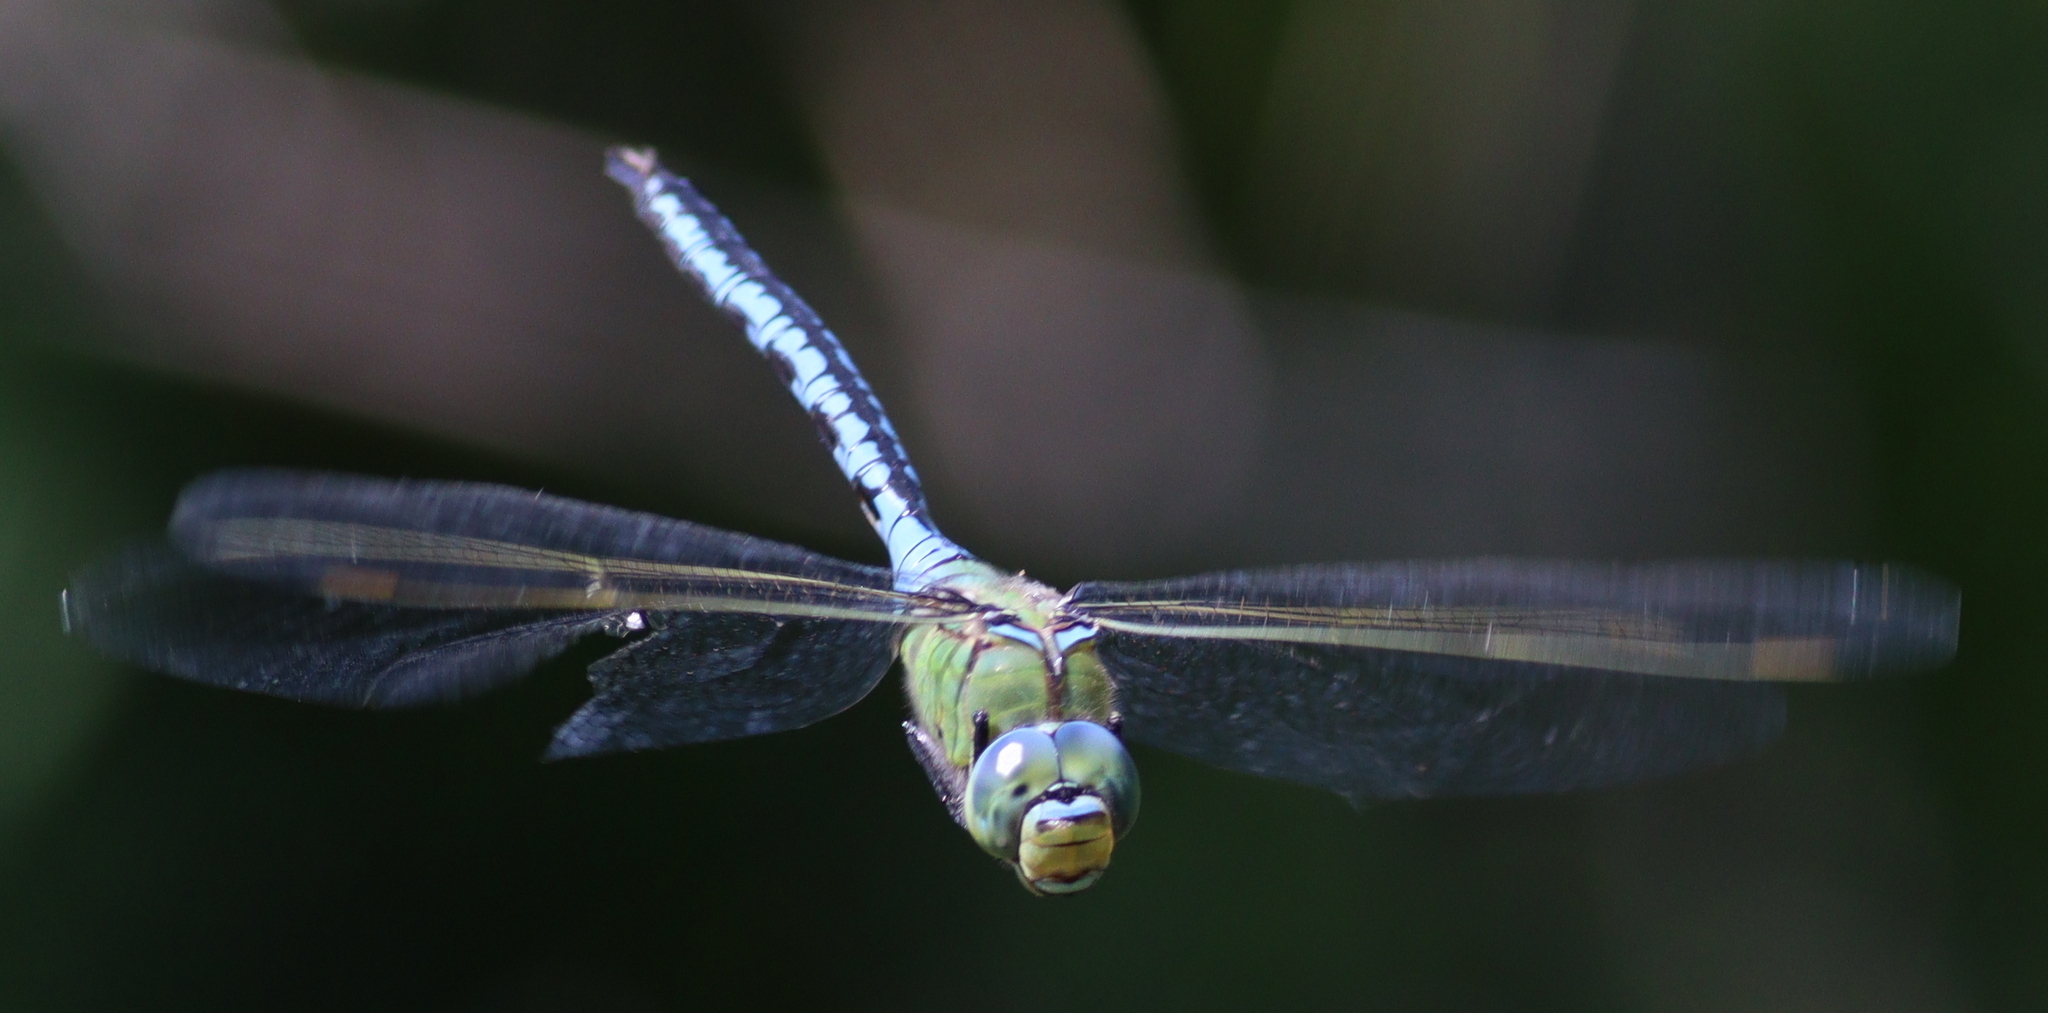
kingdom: Animalia
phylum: Arthropoda
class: Insecta
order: Odonata
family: Aeshnidae
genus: Anax
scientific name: Anax imperator
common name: Emperor dragonfly
